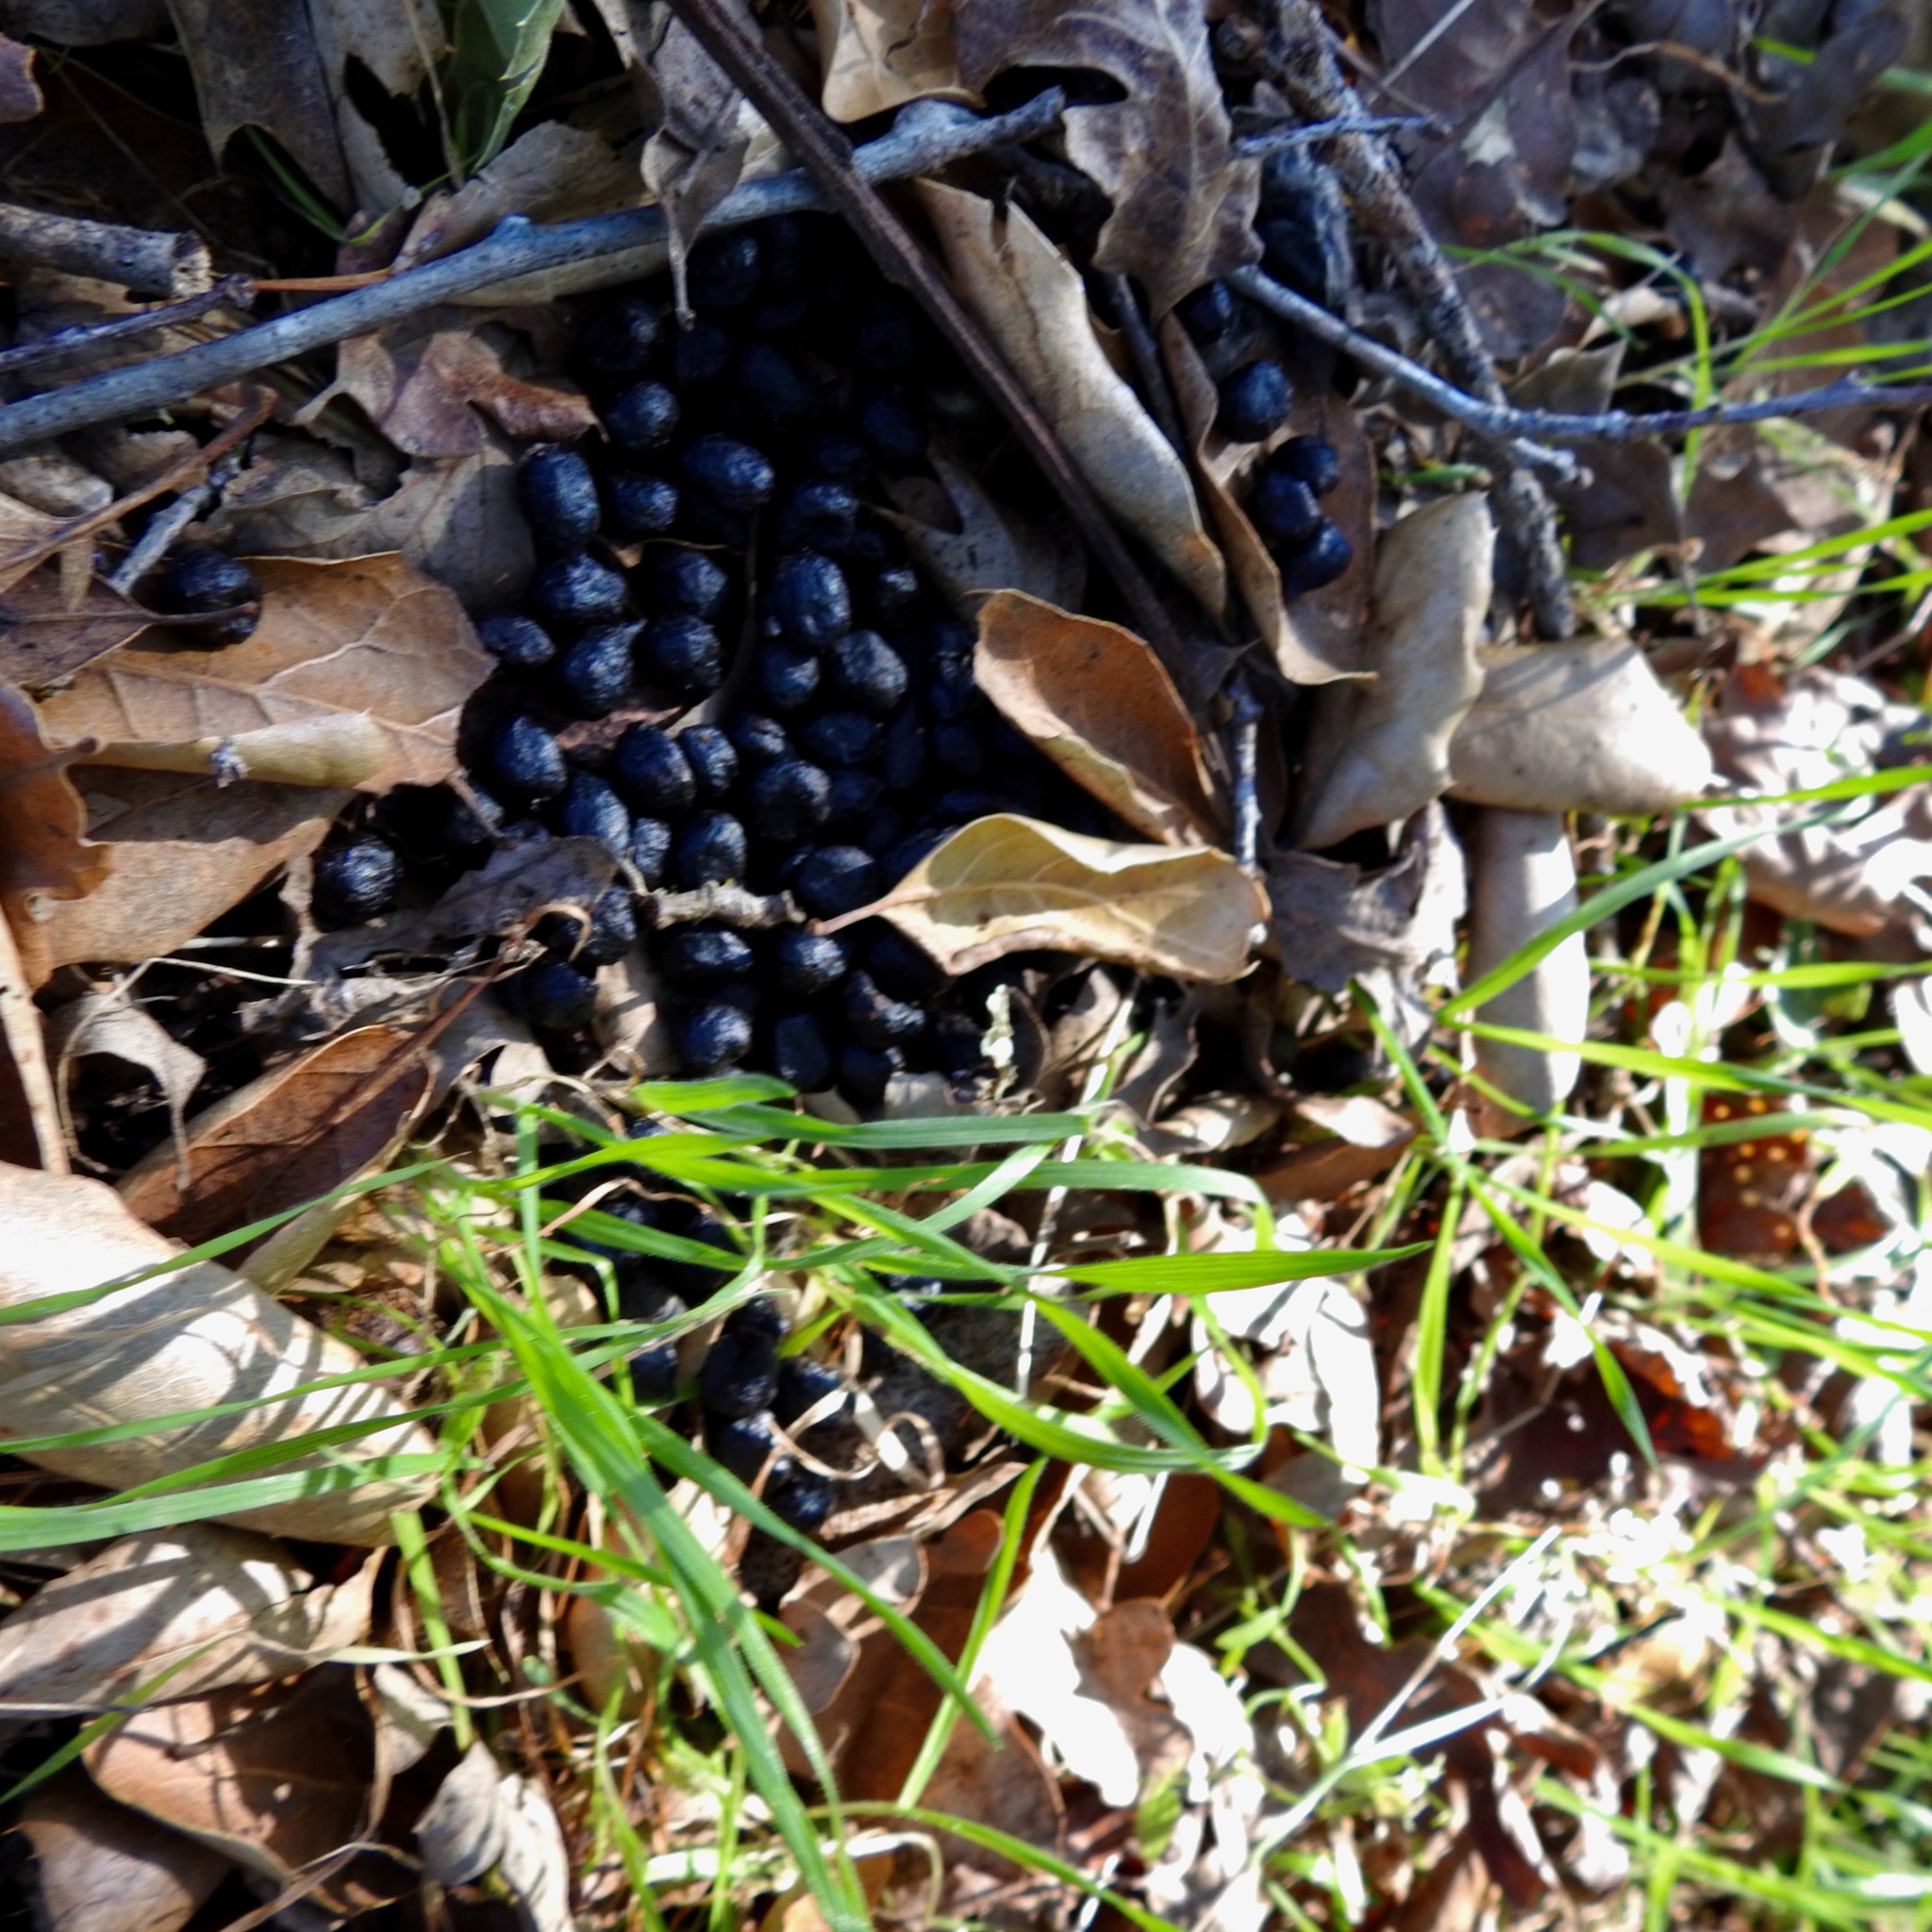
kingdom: Animalia
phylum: Chordata
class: Mammalia
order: Artiodactyla
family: Cervidae
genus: Odocoileus
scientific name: Odocoileus hemionus
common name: Mule deer
